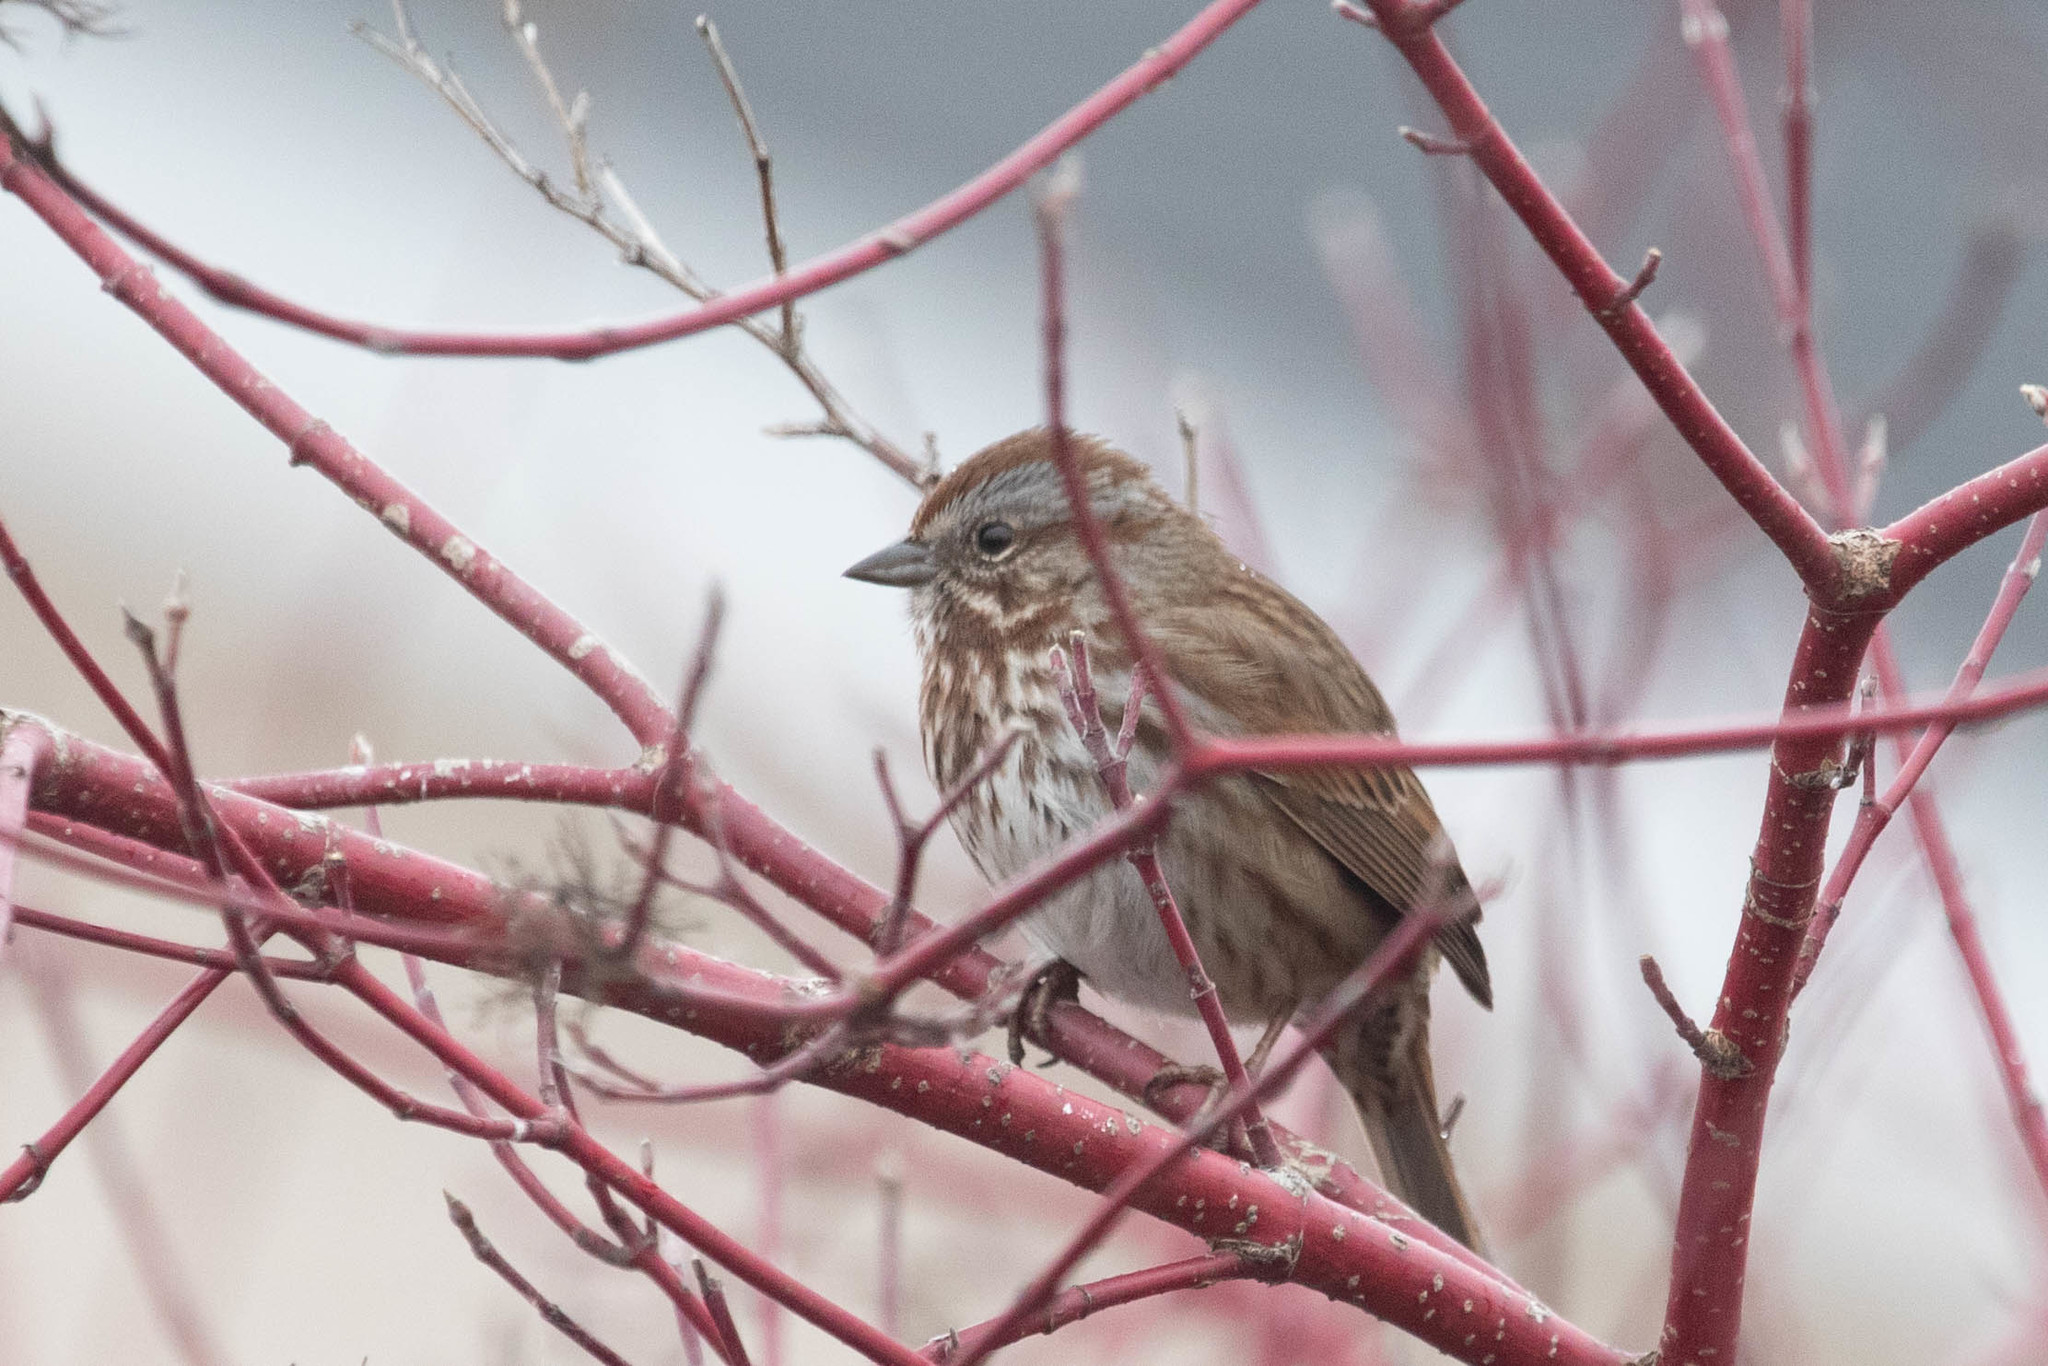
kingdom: Animalia
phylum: Chordata
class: Aves
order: Passeriformes
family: Passerellidae
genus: Melospiza
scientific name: Melospiza melodia
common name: Song sparrow
